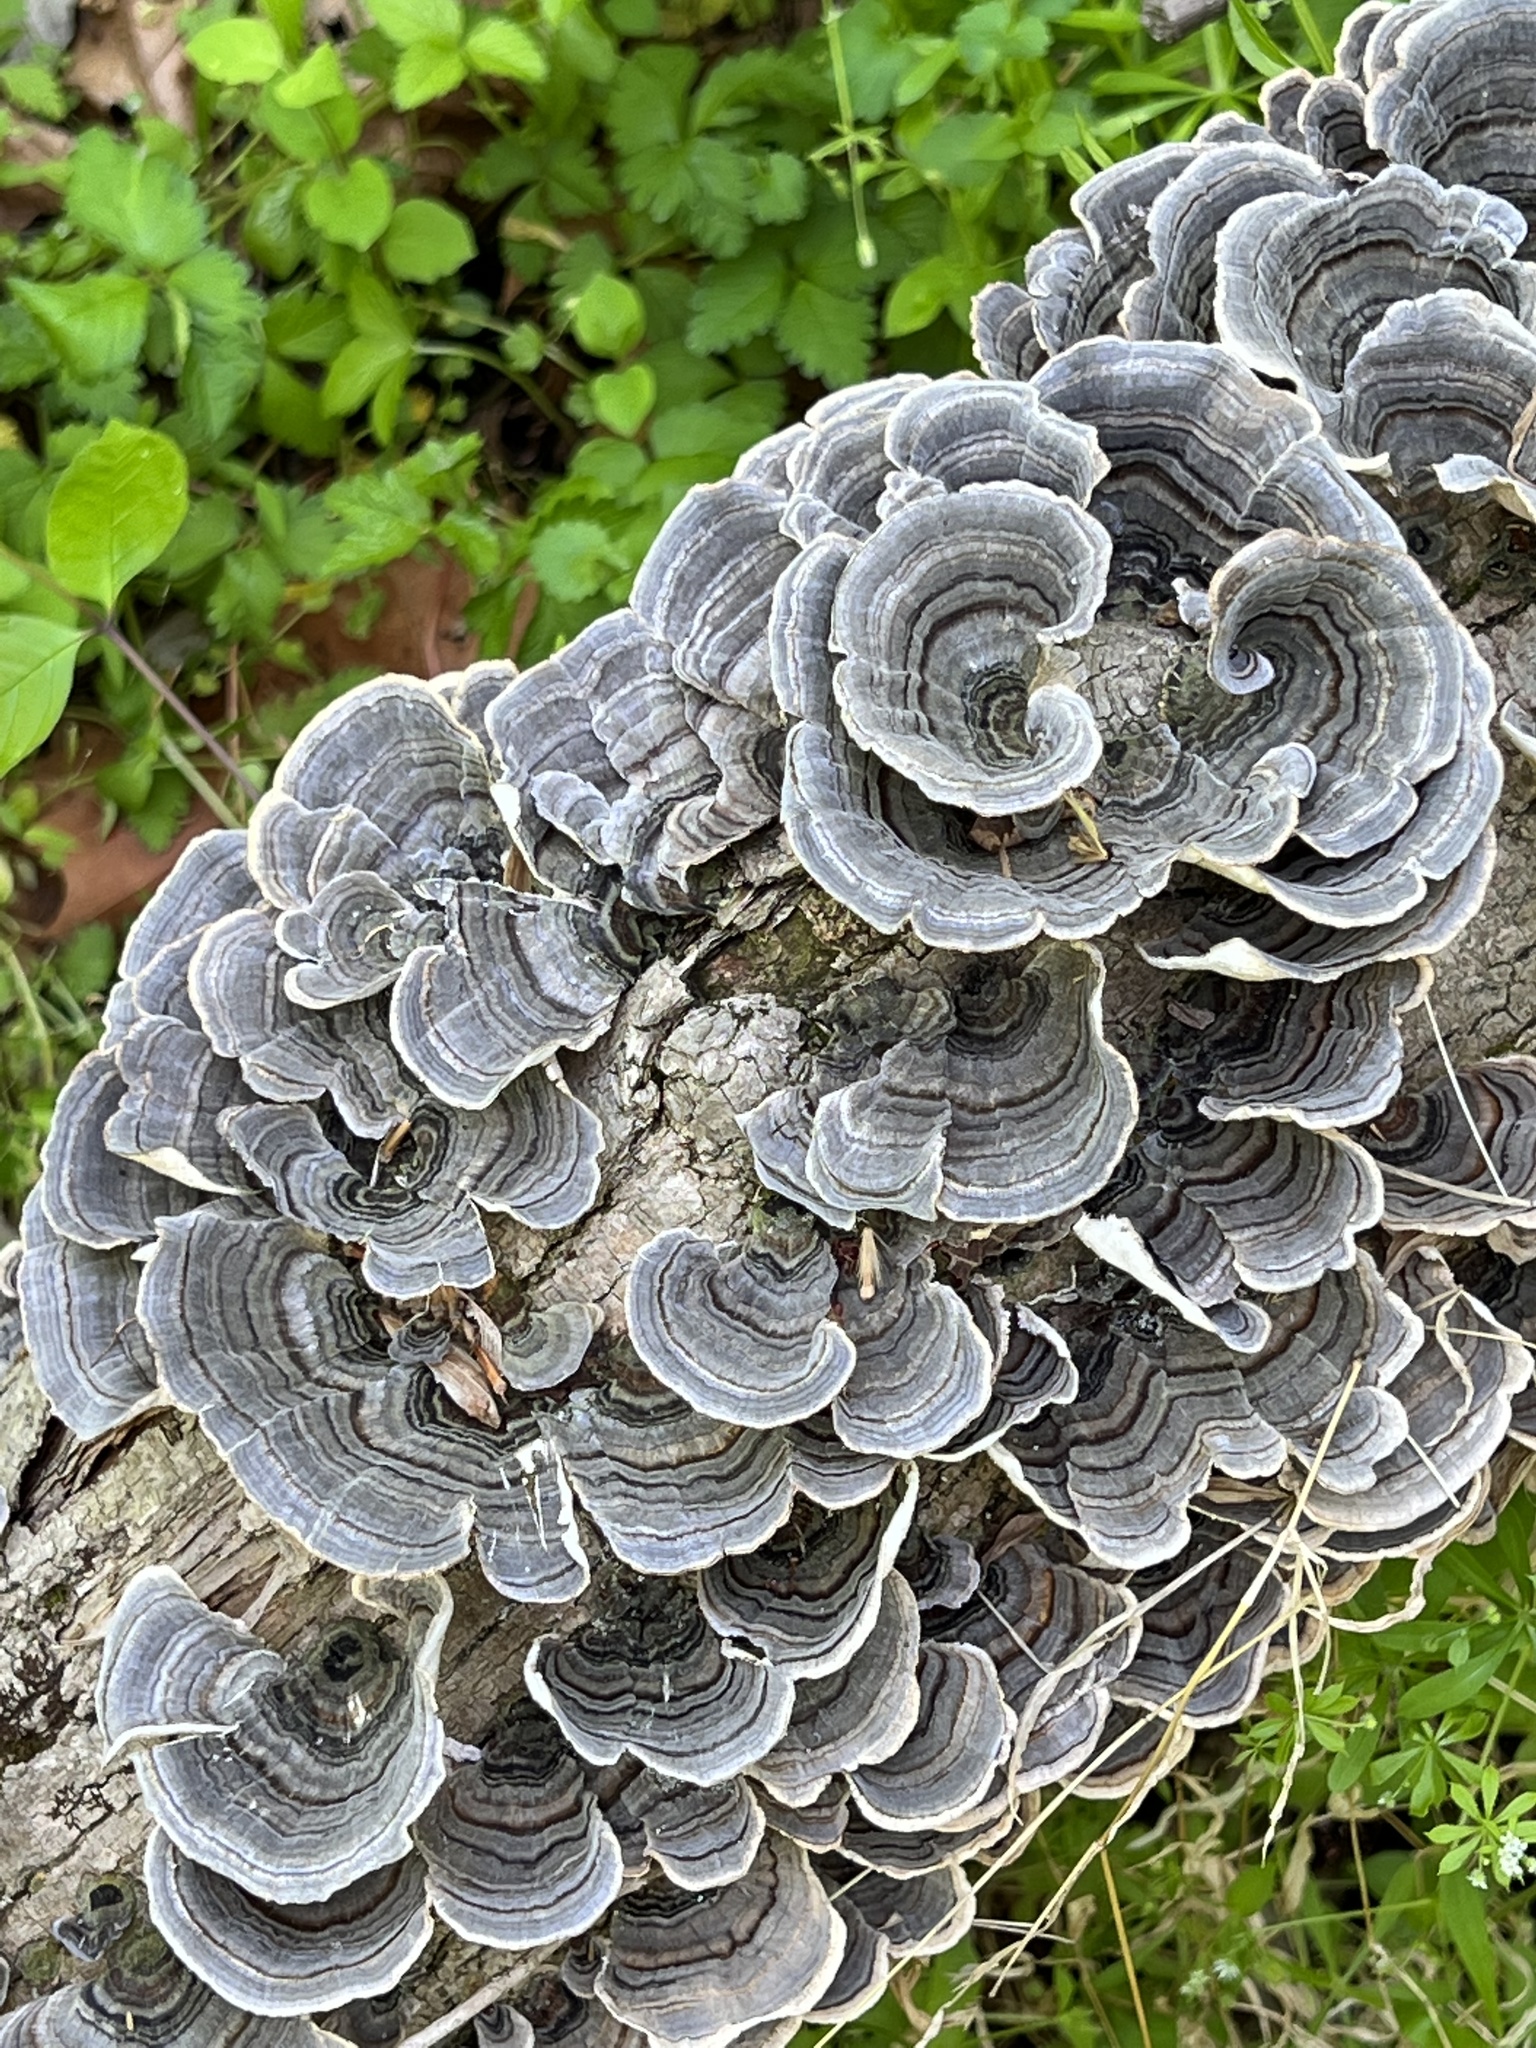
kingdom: Fungi
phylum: Basidiomycota
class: Agaricomycetes
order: Polyporales
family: Polyporaceae
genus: Trametes
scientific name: Trametes versicolor
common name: Turkeytail
